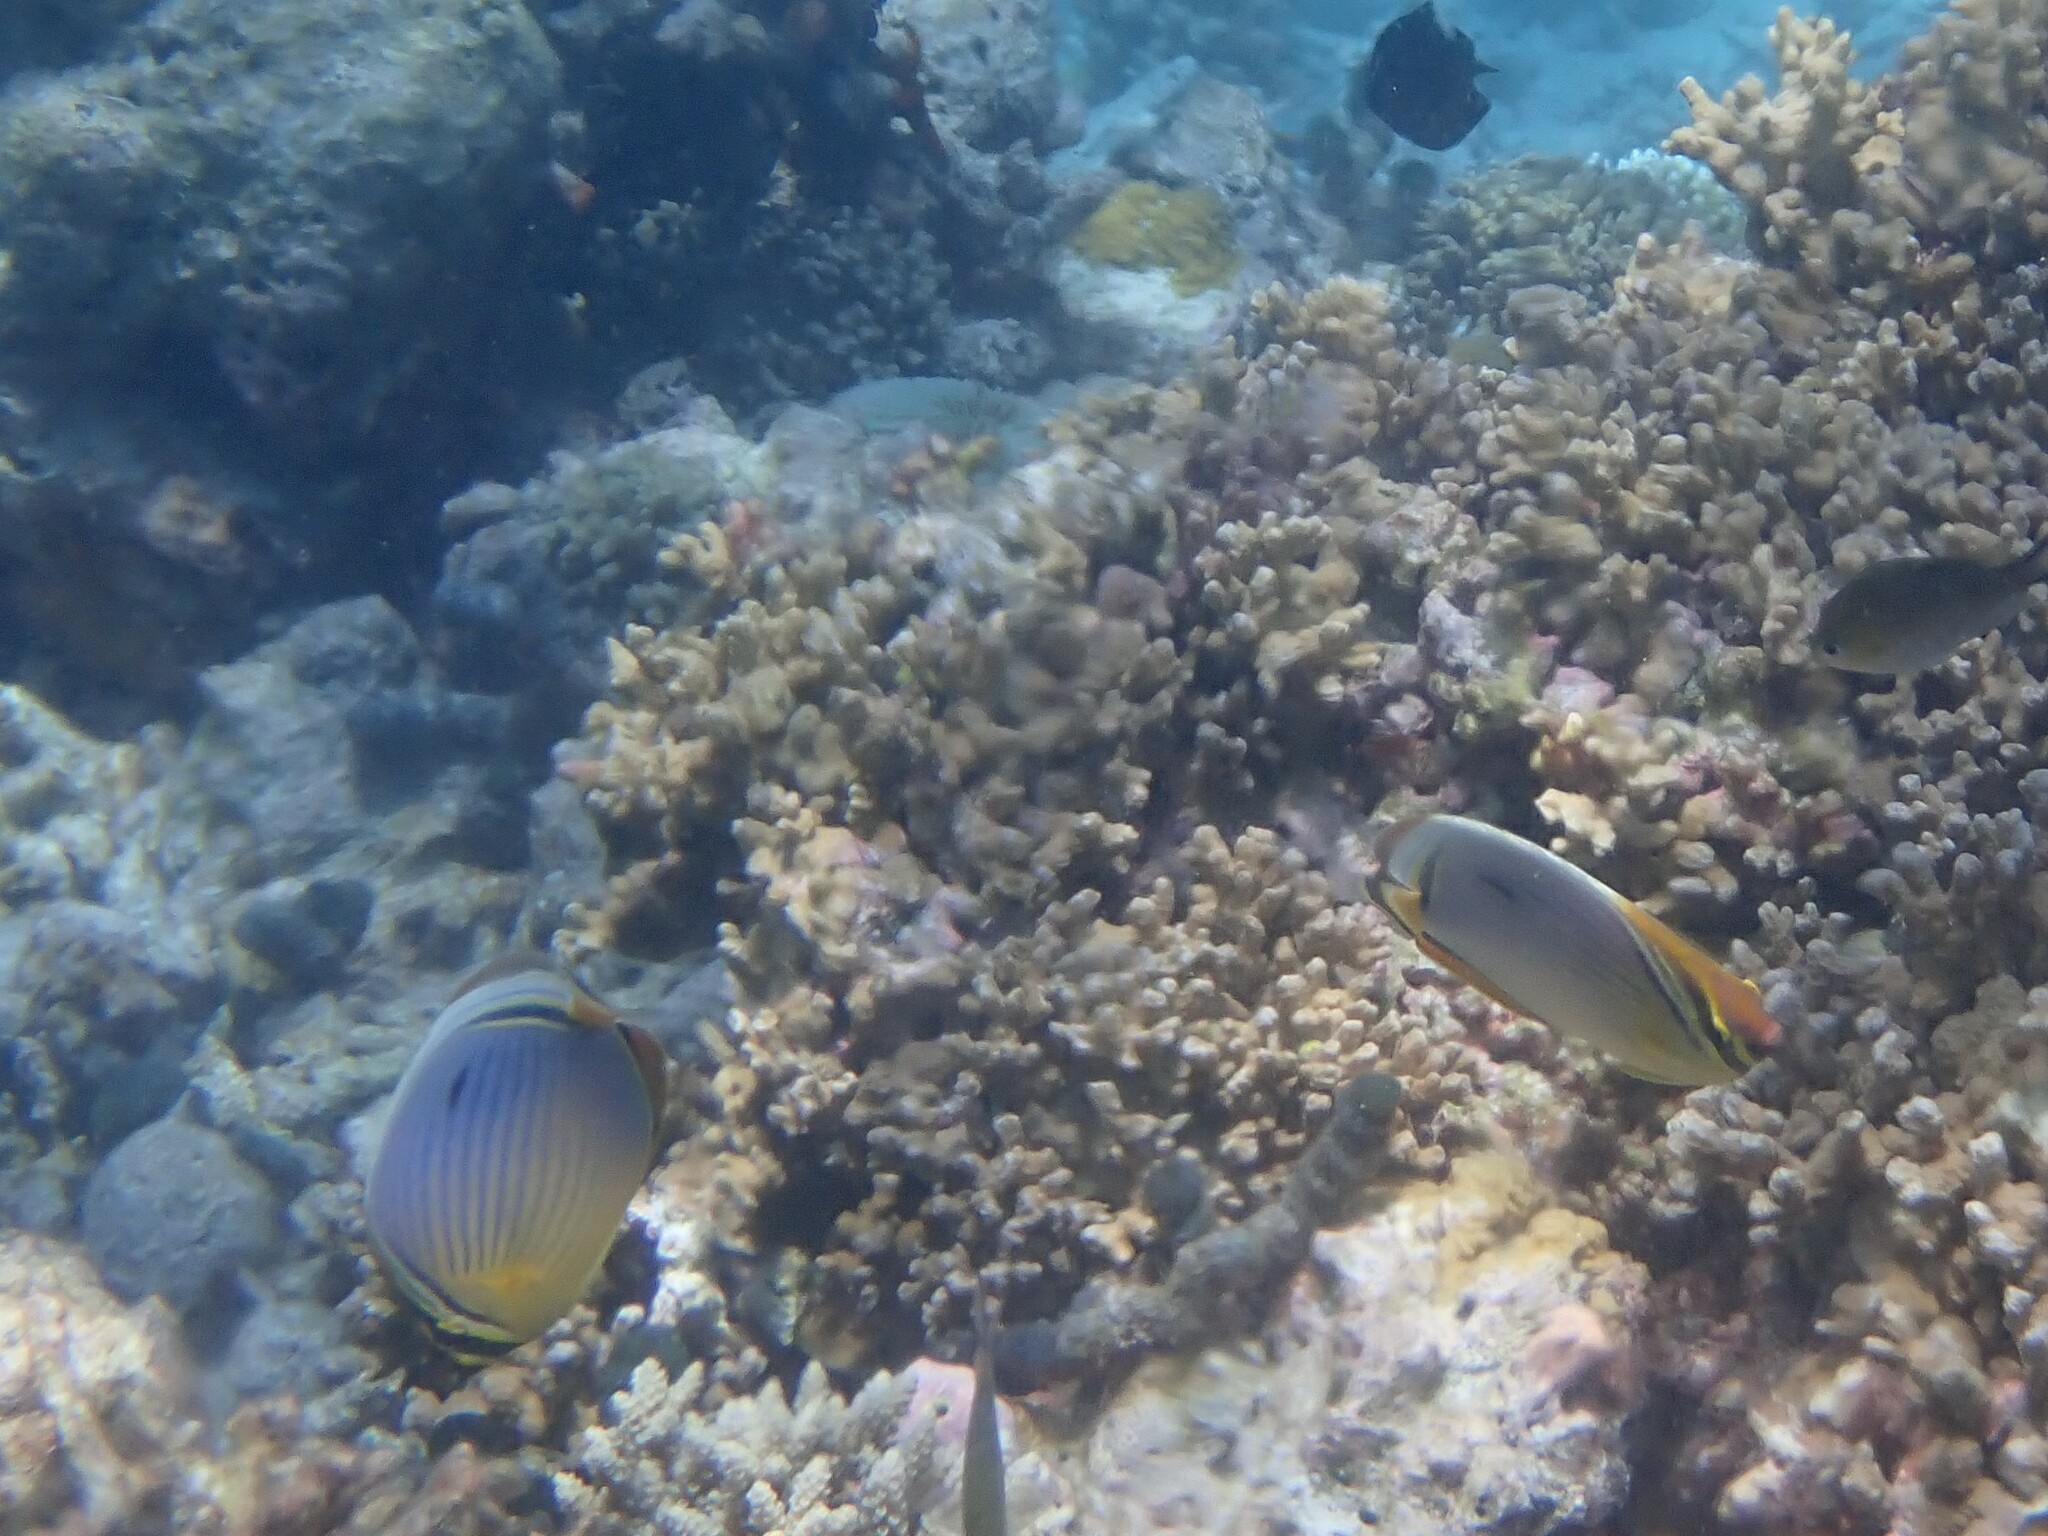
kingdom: Animalia
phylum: Chordata
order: Perciformes
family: Chaetodontidae
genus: Chaetodon
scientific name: Chaetodon trifasciatus
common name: Redfin butterflyfish
